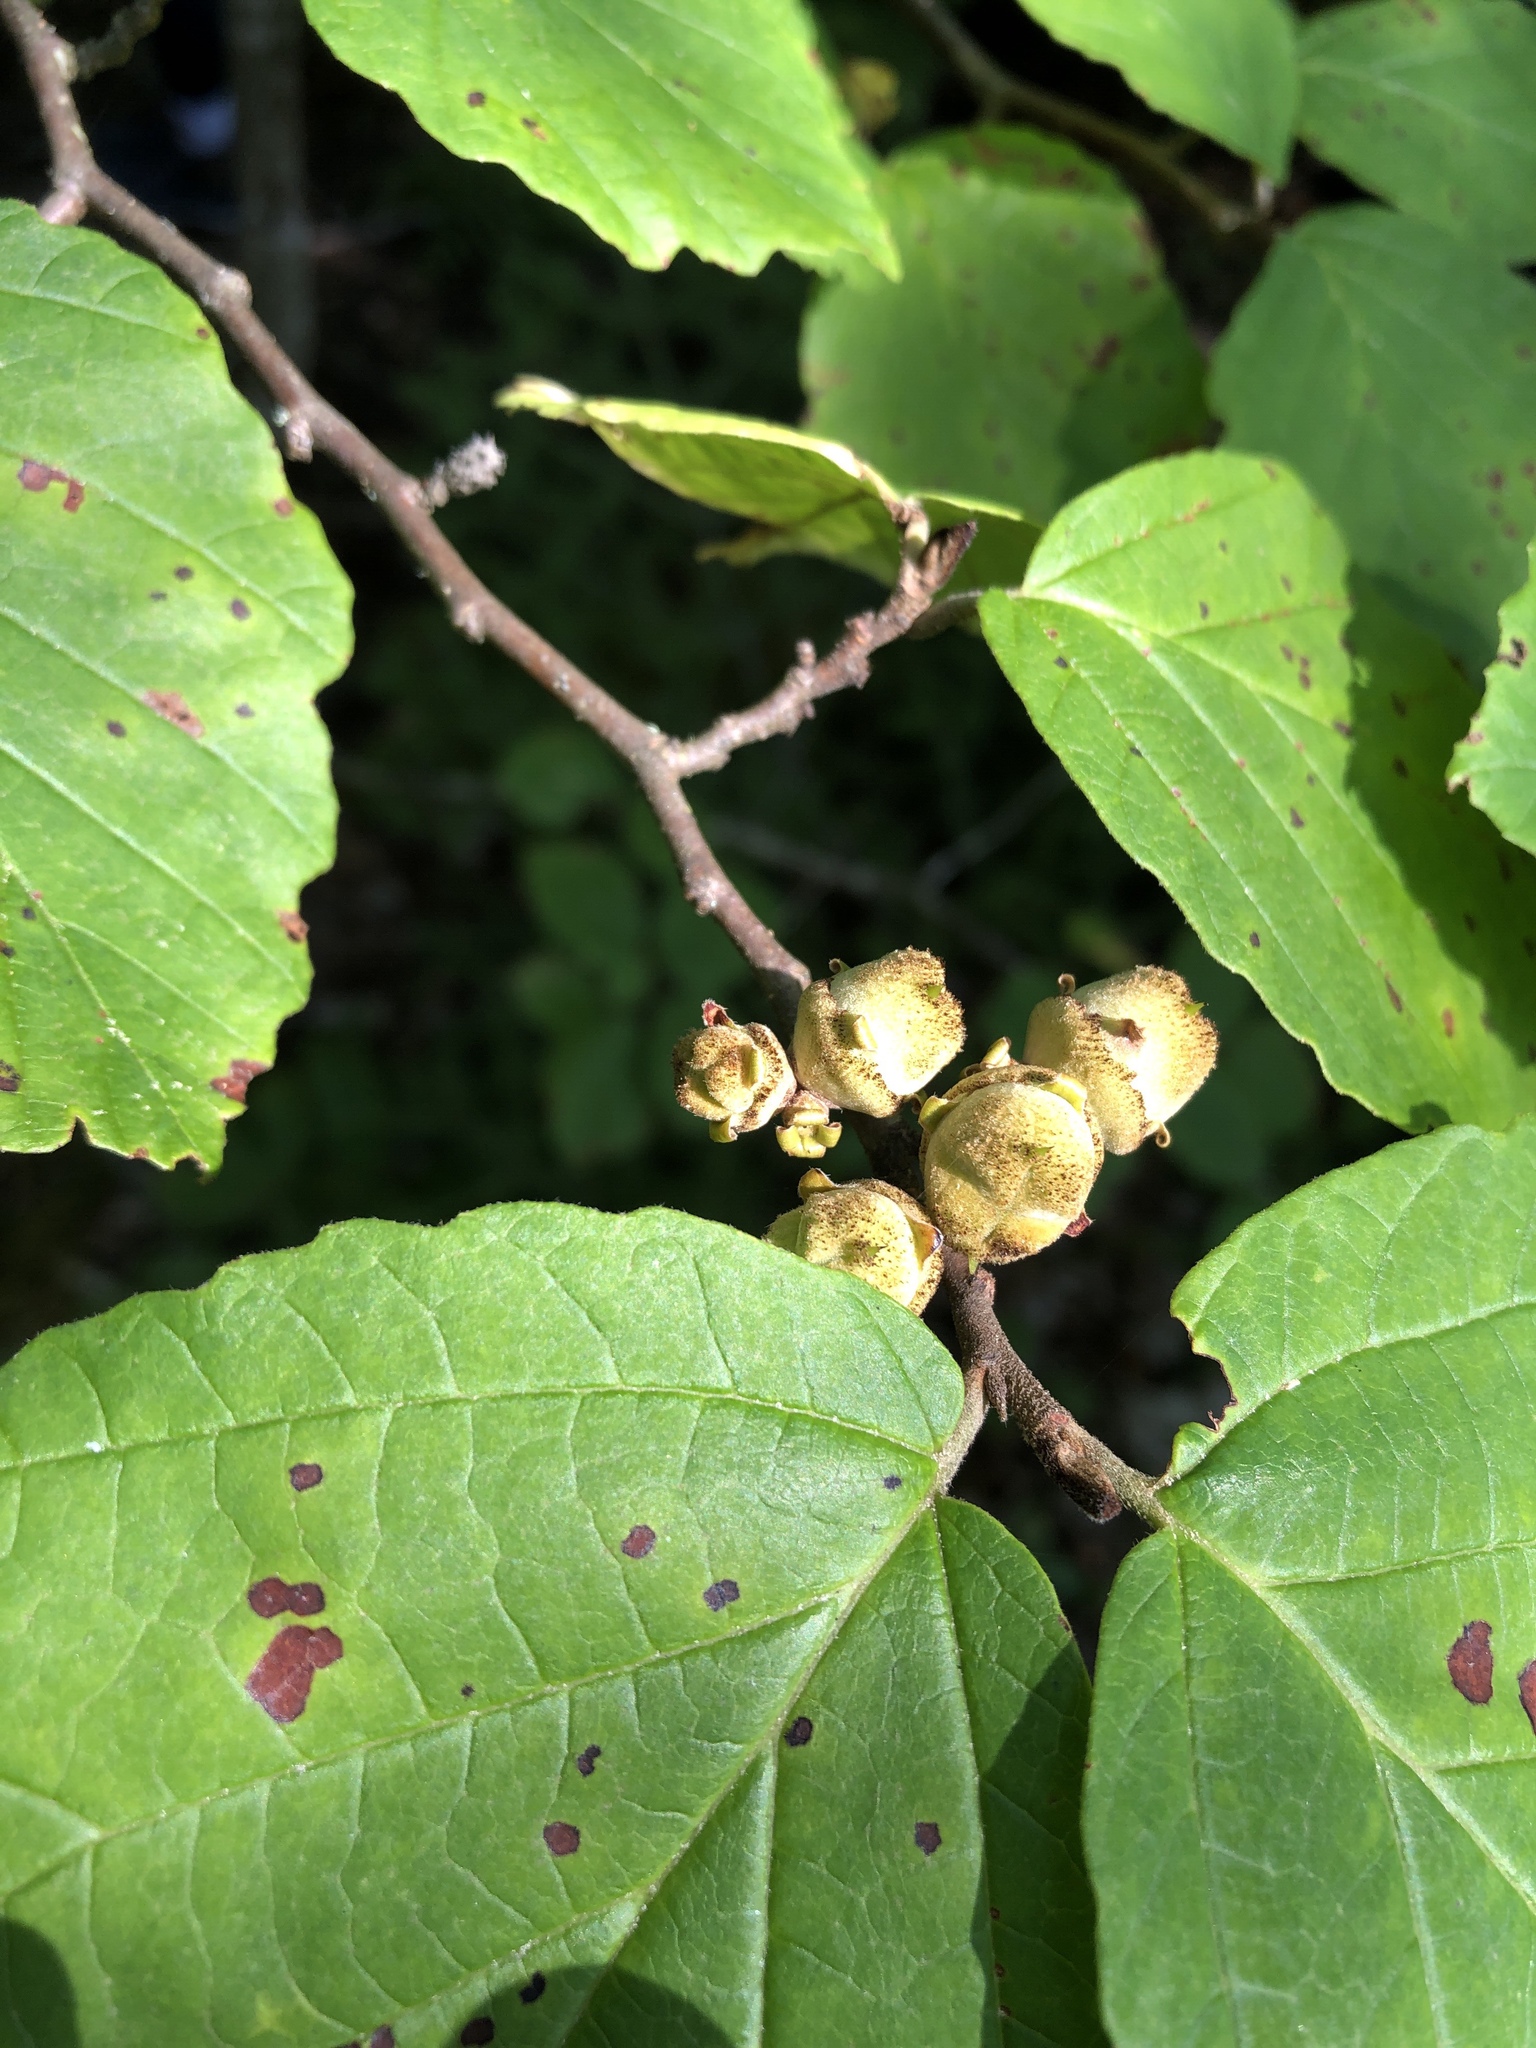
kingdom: Plantae
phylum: Tracheophyta
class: Magnoliopsida
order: Saxifragales
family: Hamamelidaceae
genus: Hamamelis
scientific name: Hamamelis virginiana
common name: Witch-hazel
